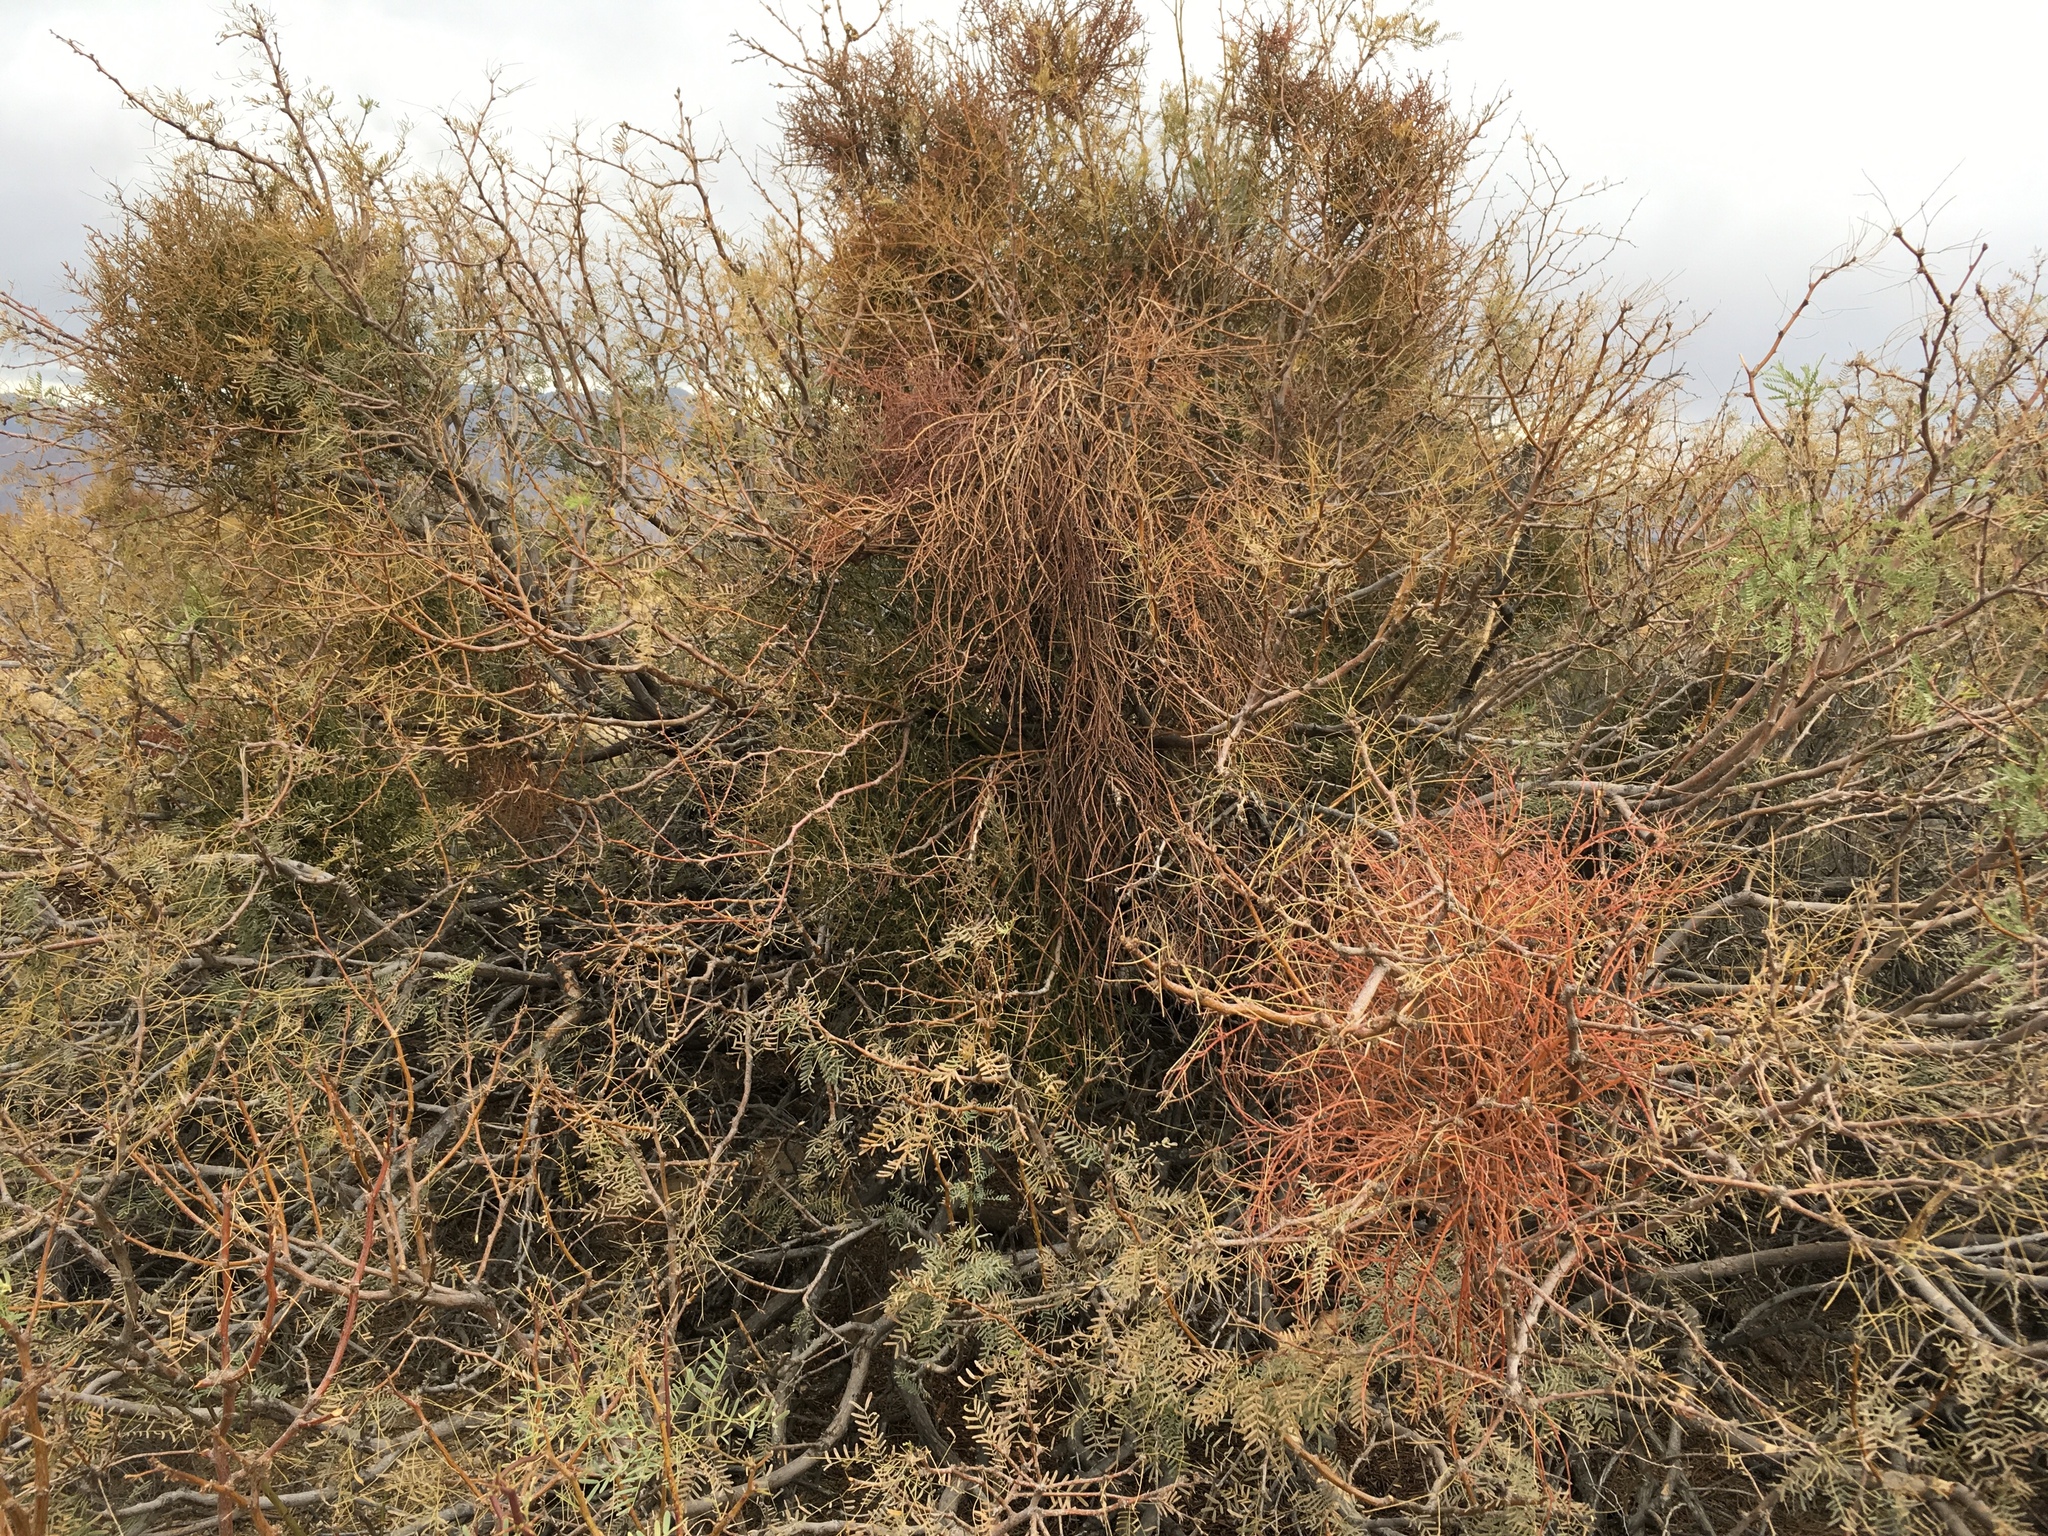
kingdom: Plantae
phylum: Tracheophyta
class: Magnoliopsida
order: Fabales
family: Fabaceae
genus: Prosopis
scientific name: Prosopis pubescens
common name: Screw-bean
